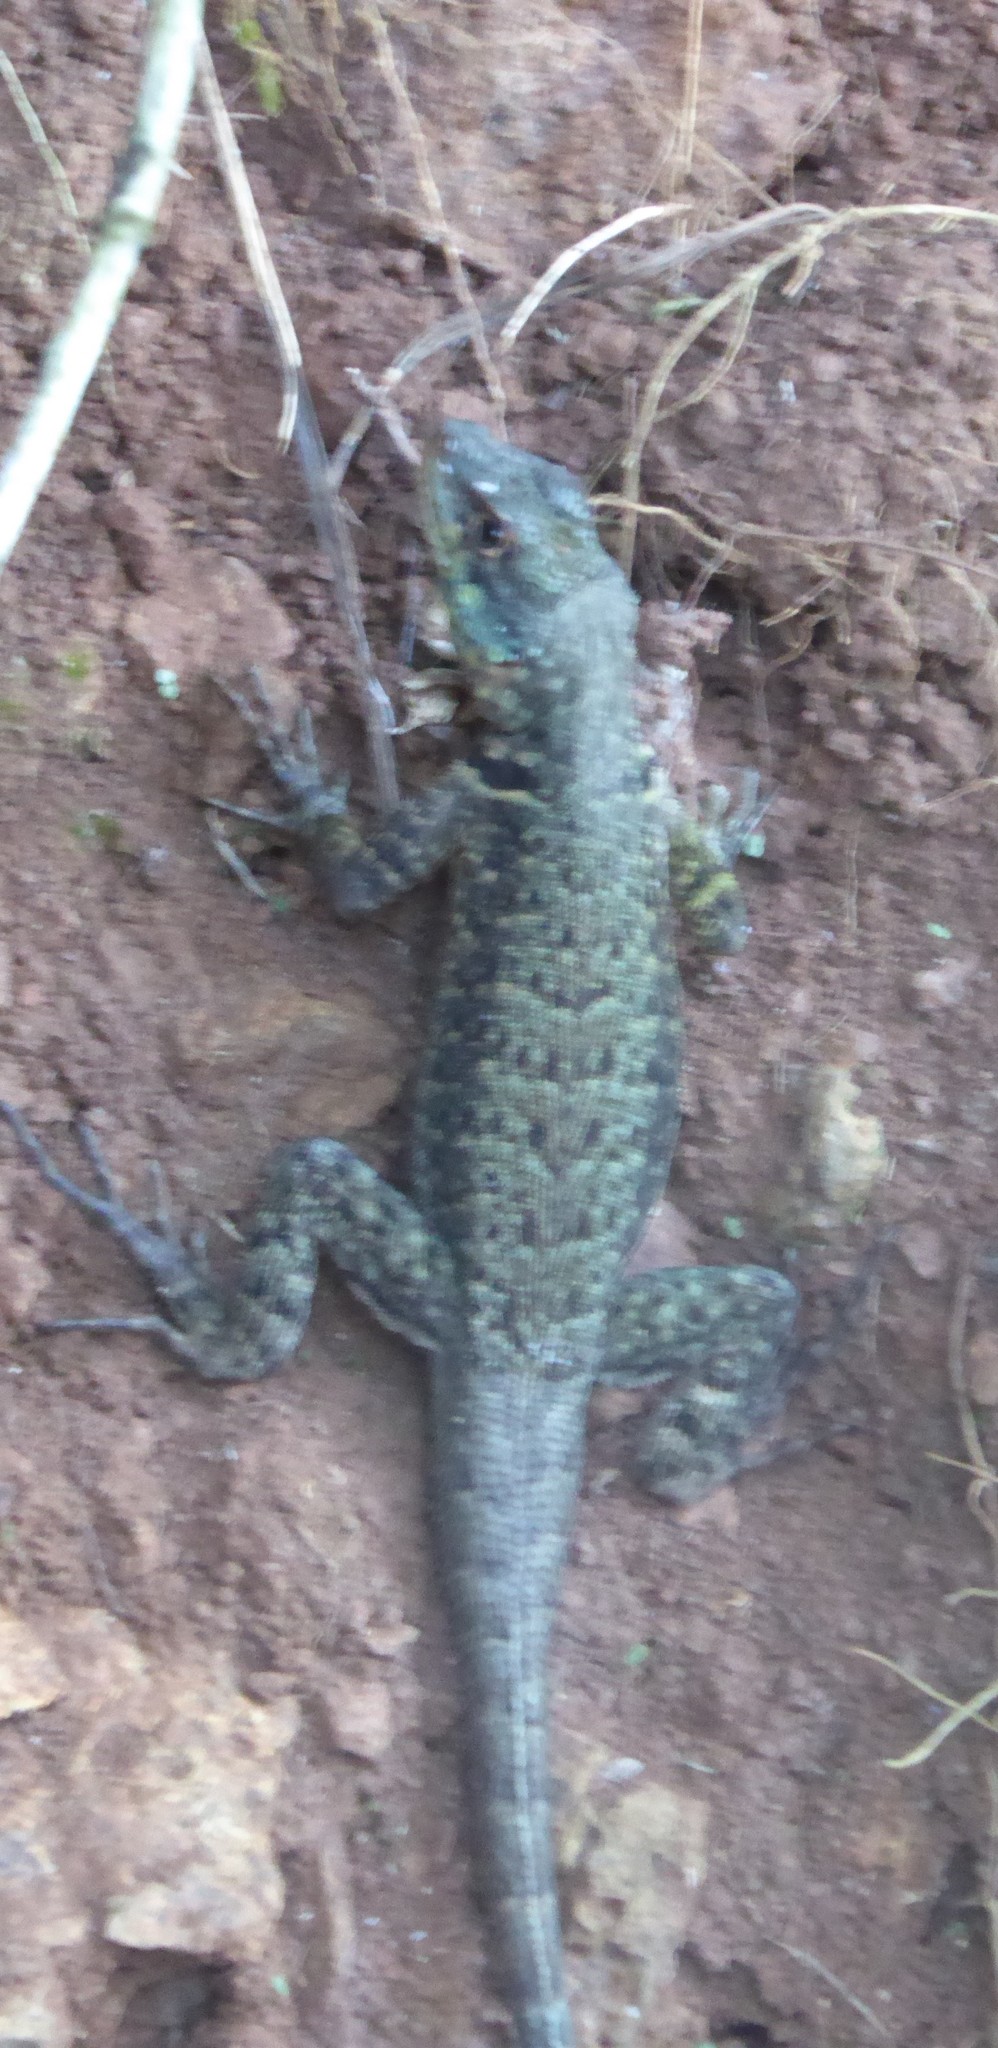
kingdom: Animalia
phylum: Chordata
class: Squamata
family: Tropiduridae
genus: Tropidurus
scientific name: Tropidurus catalanensis
